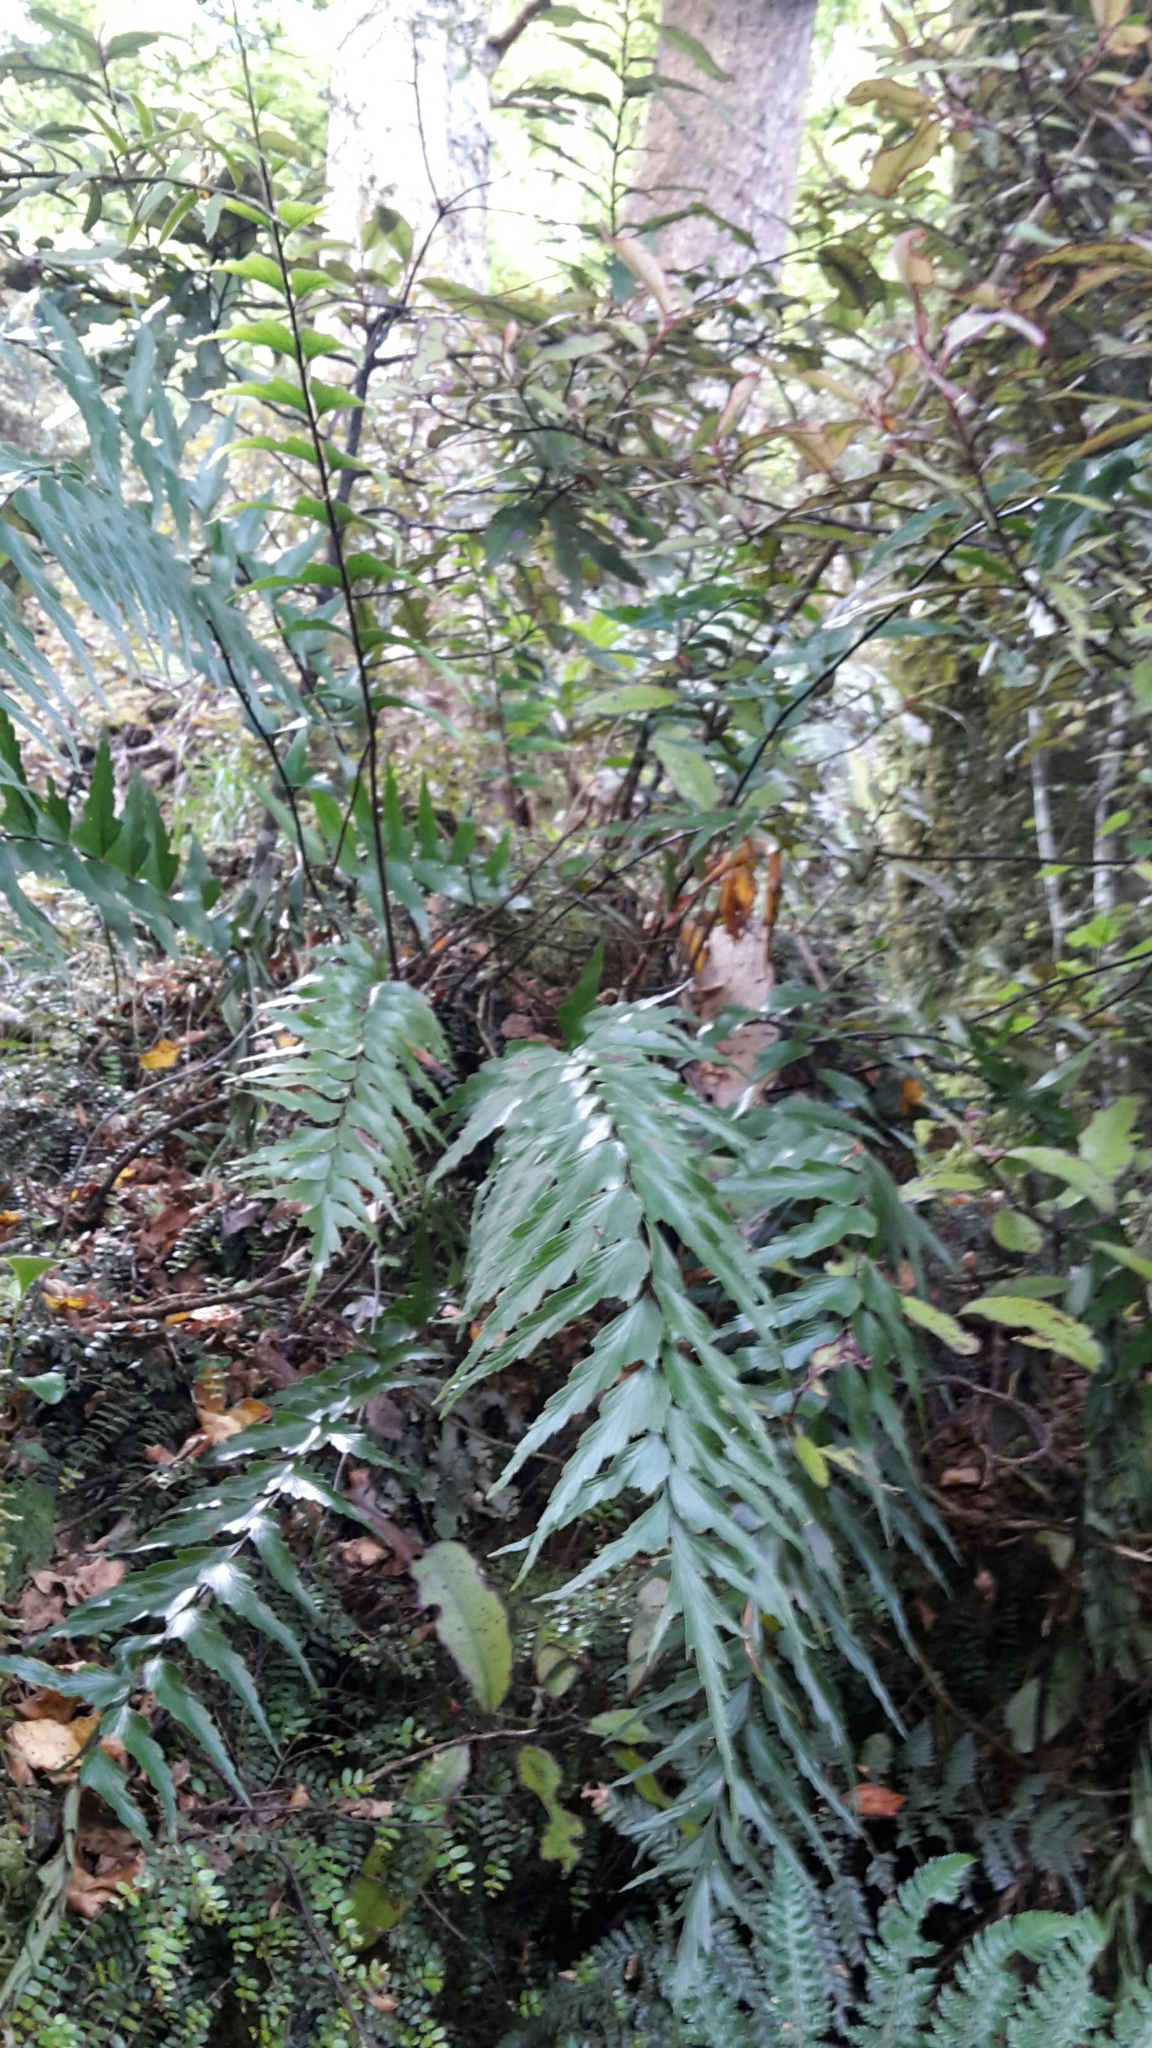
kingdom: Plantae
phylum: Tracheophyta
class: Polypodiopsida
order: Polypodiales
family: Aspleniaceae
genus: Asplenium
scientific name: Asplenium polyodon
